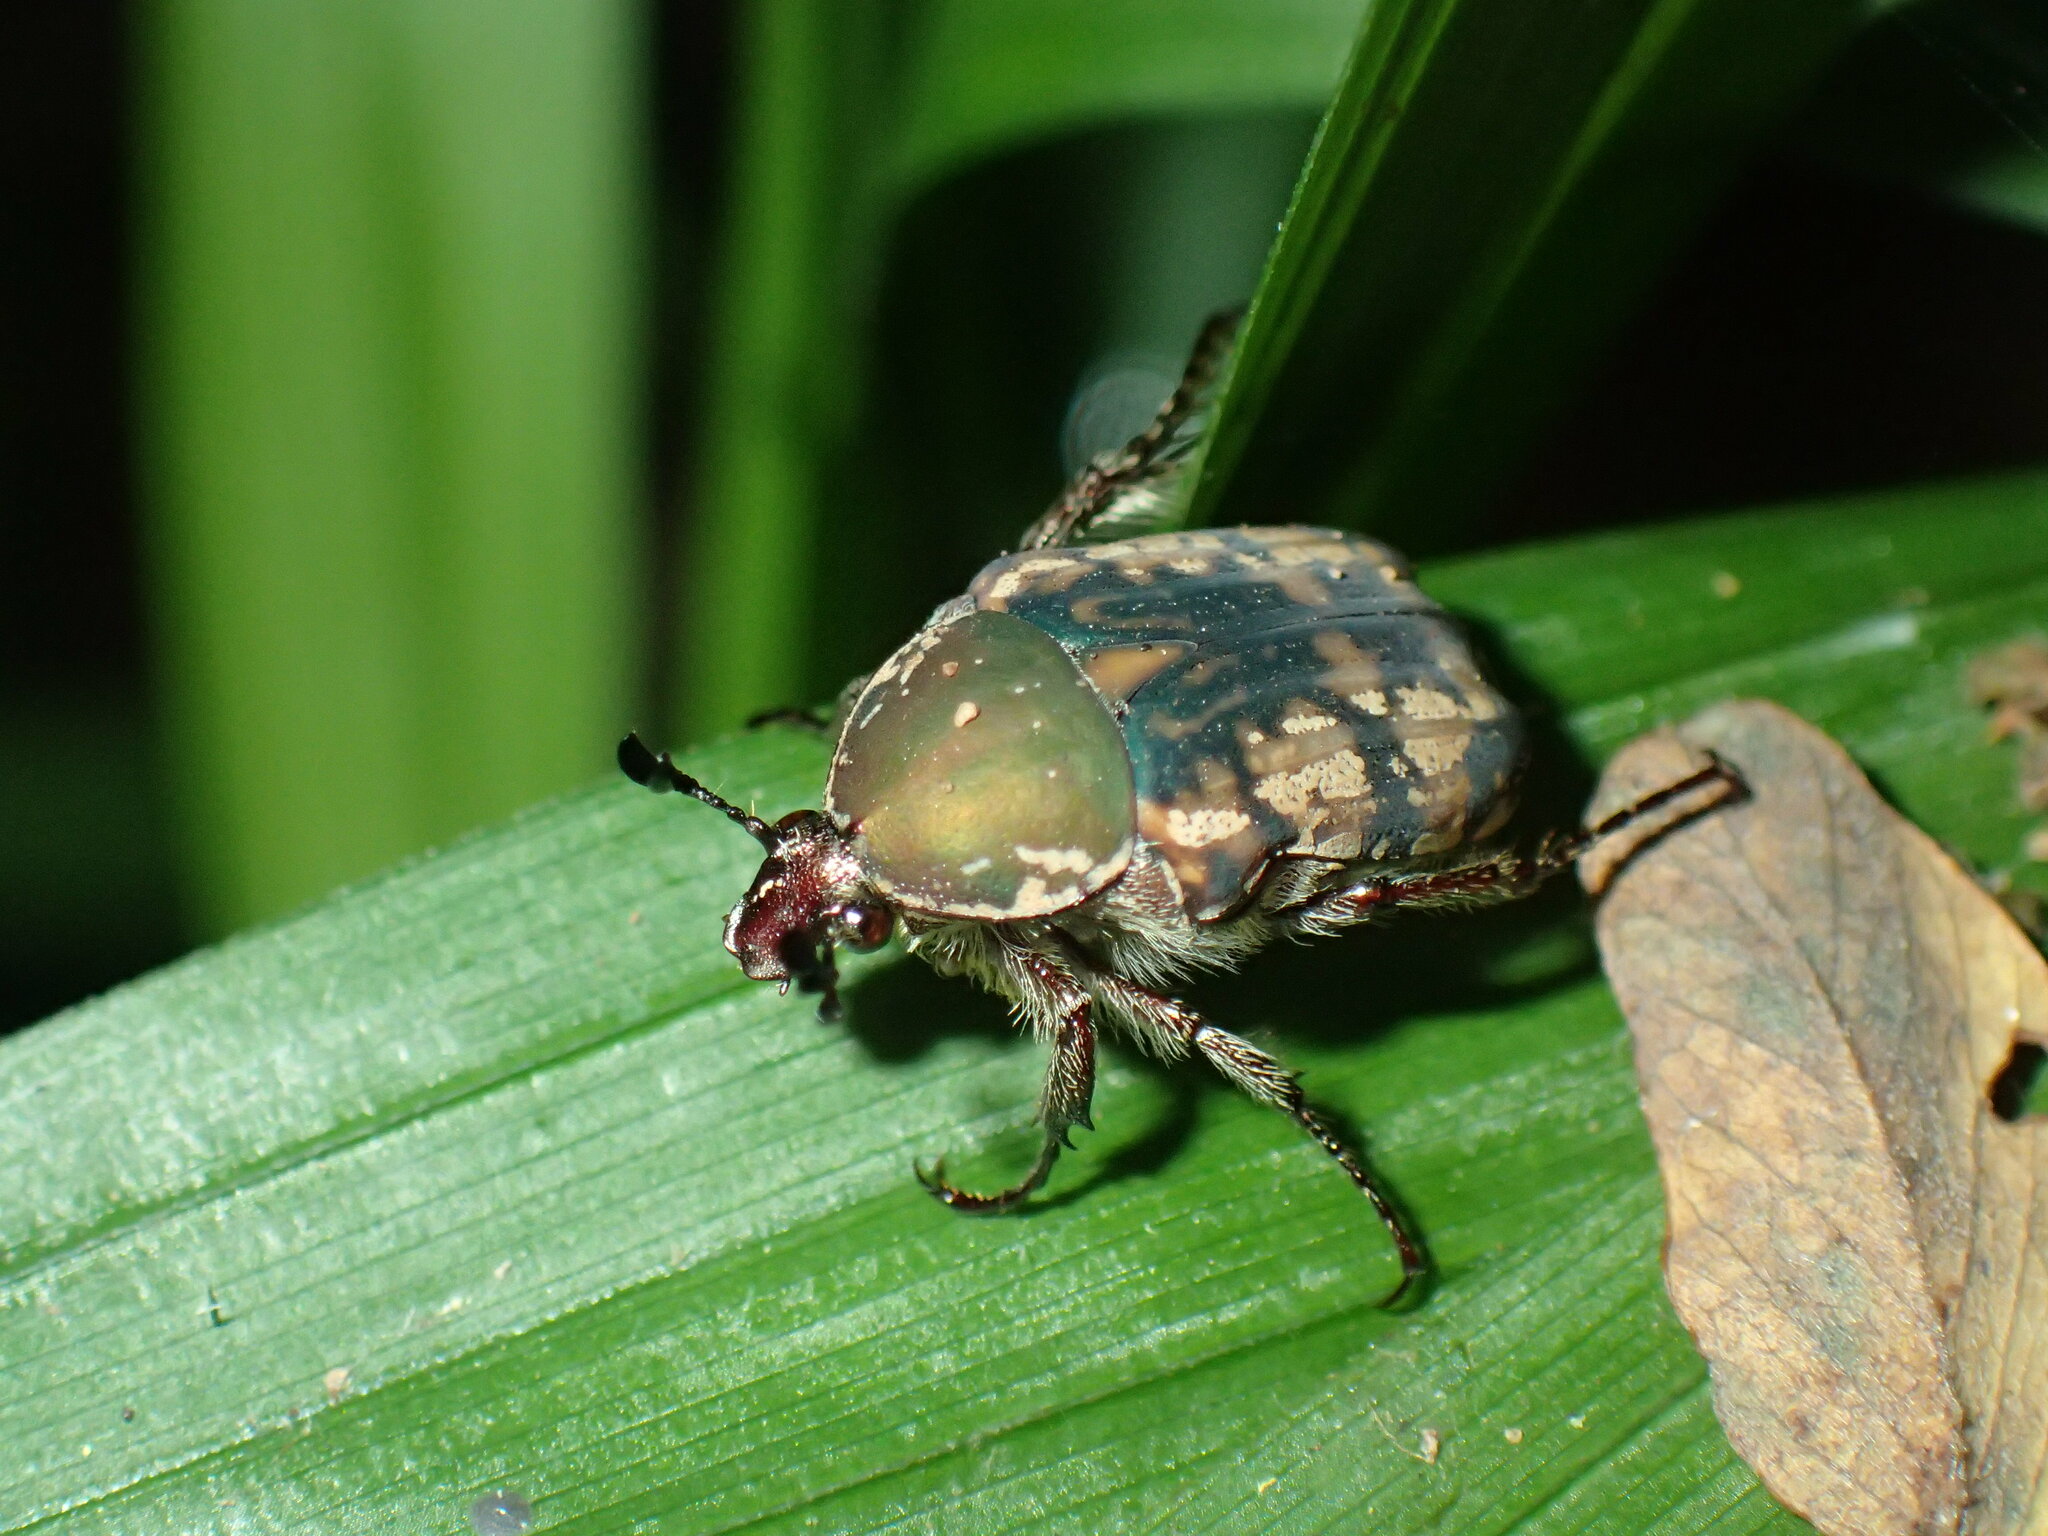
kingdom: Animalia
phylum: Arthropoda
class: Insecta
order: Coleoptera
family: Scarabaeidae
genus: Elaphinis
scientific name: Elaphinis irrorata
